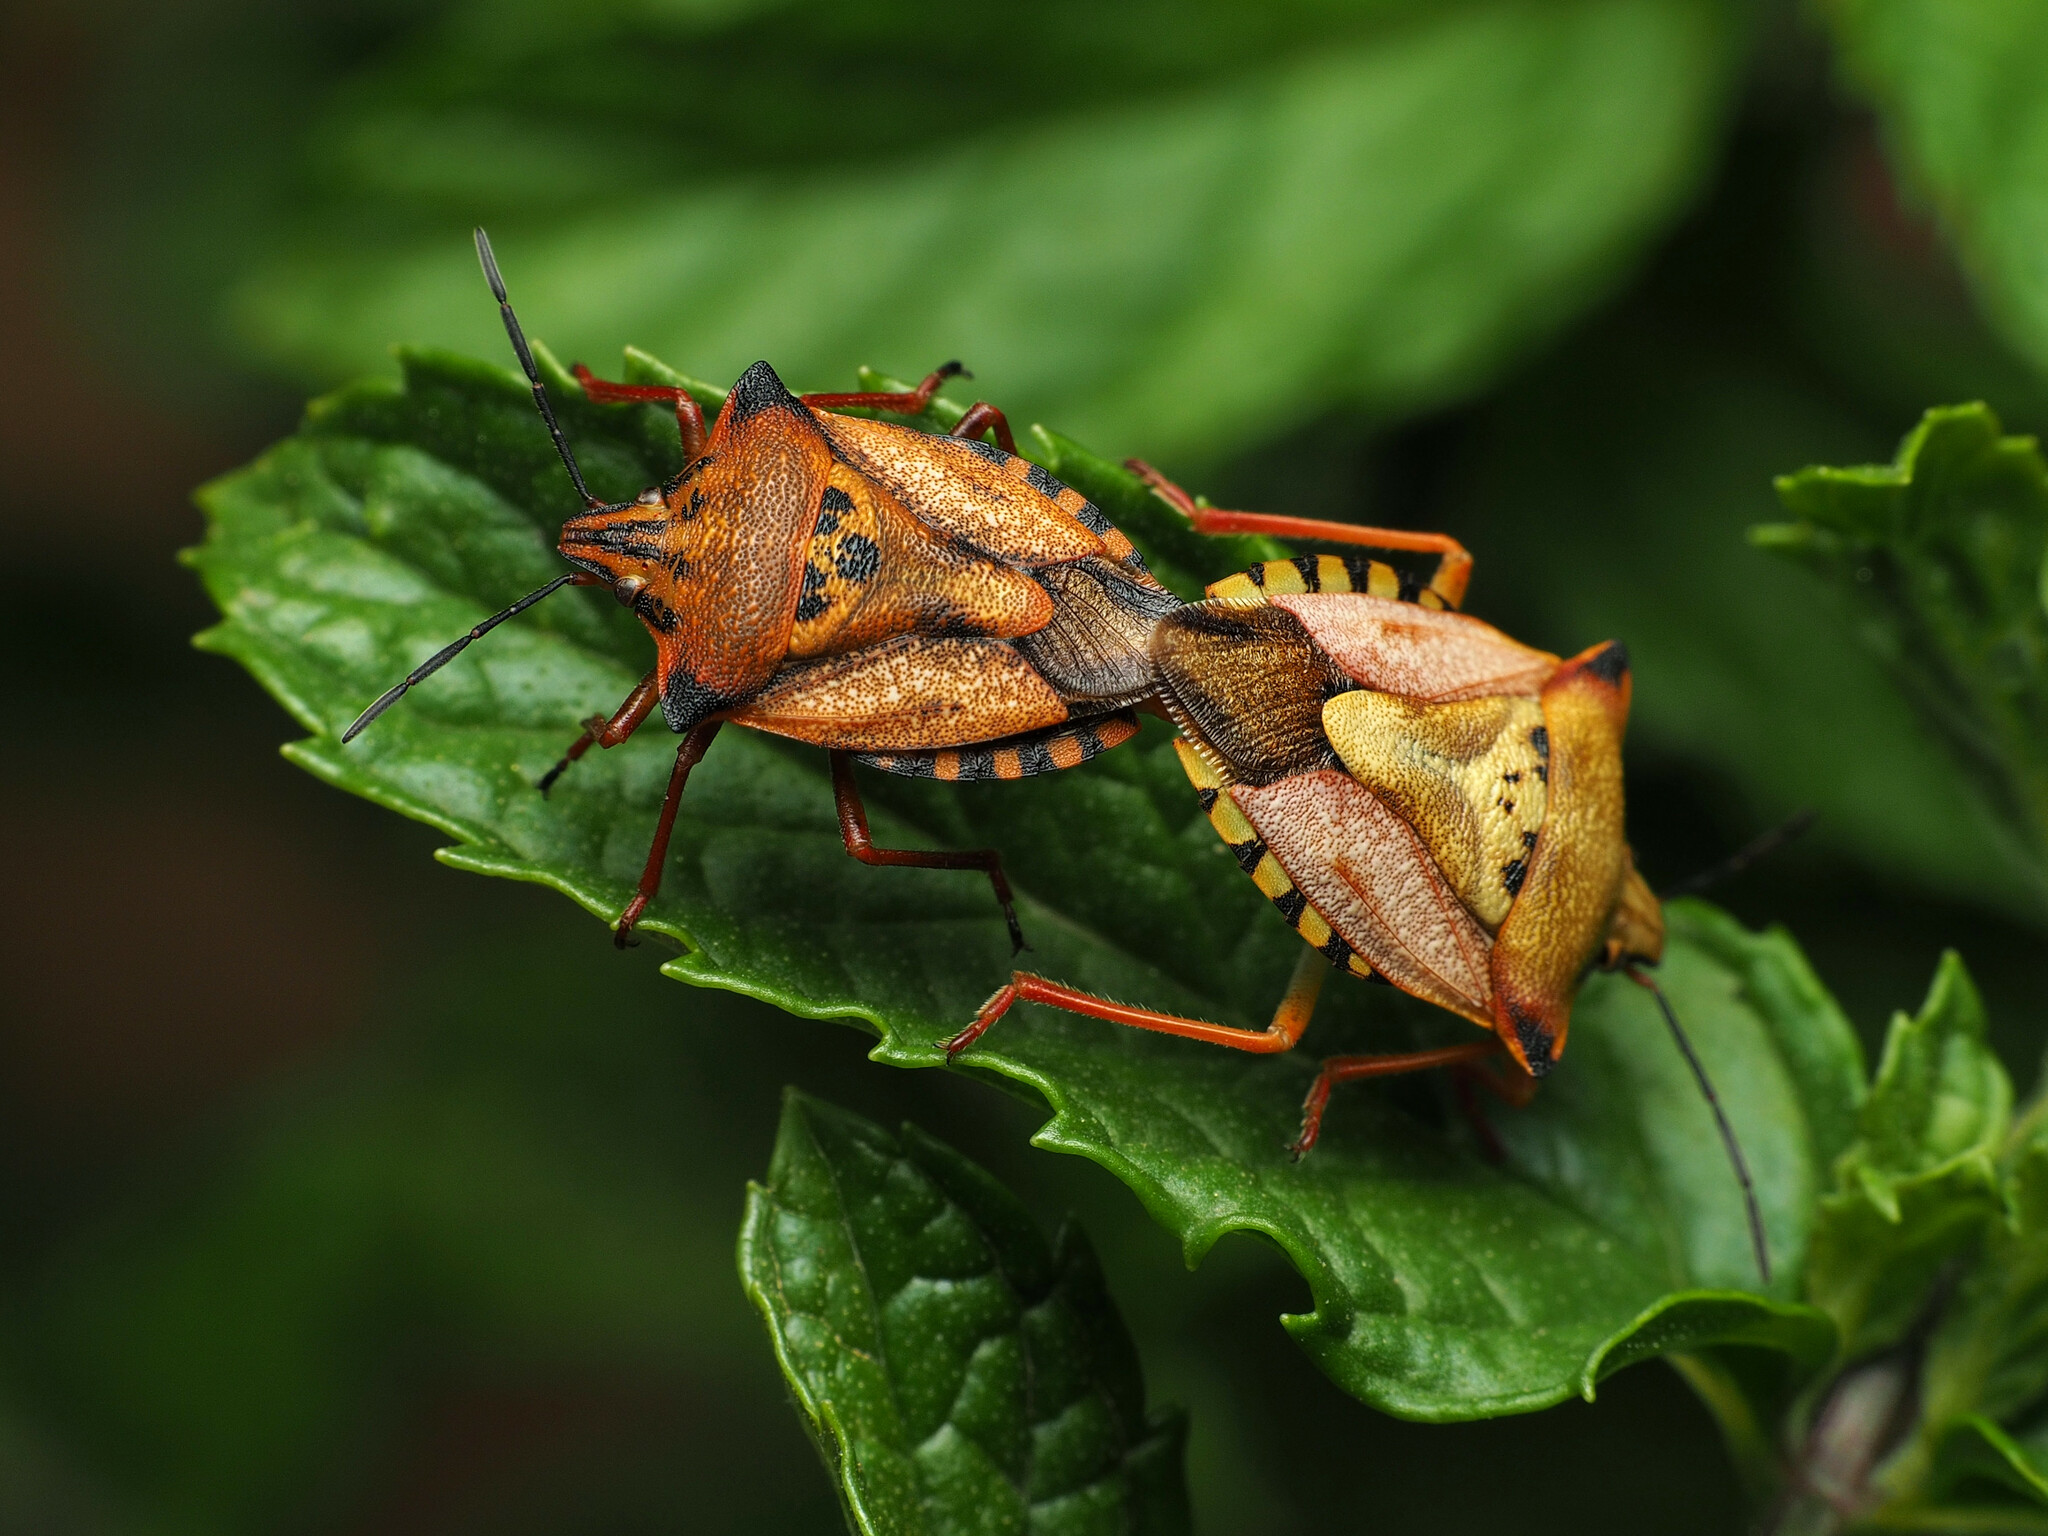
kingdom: Animalia
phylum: Arthropoda
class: Insecta
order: Hemiptera
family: Pentatomidae
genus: Carpocoris
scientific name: Carpocoris mediterraneus
